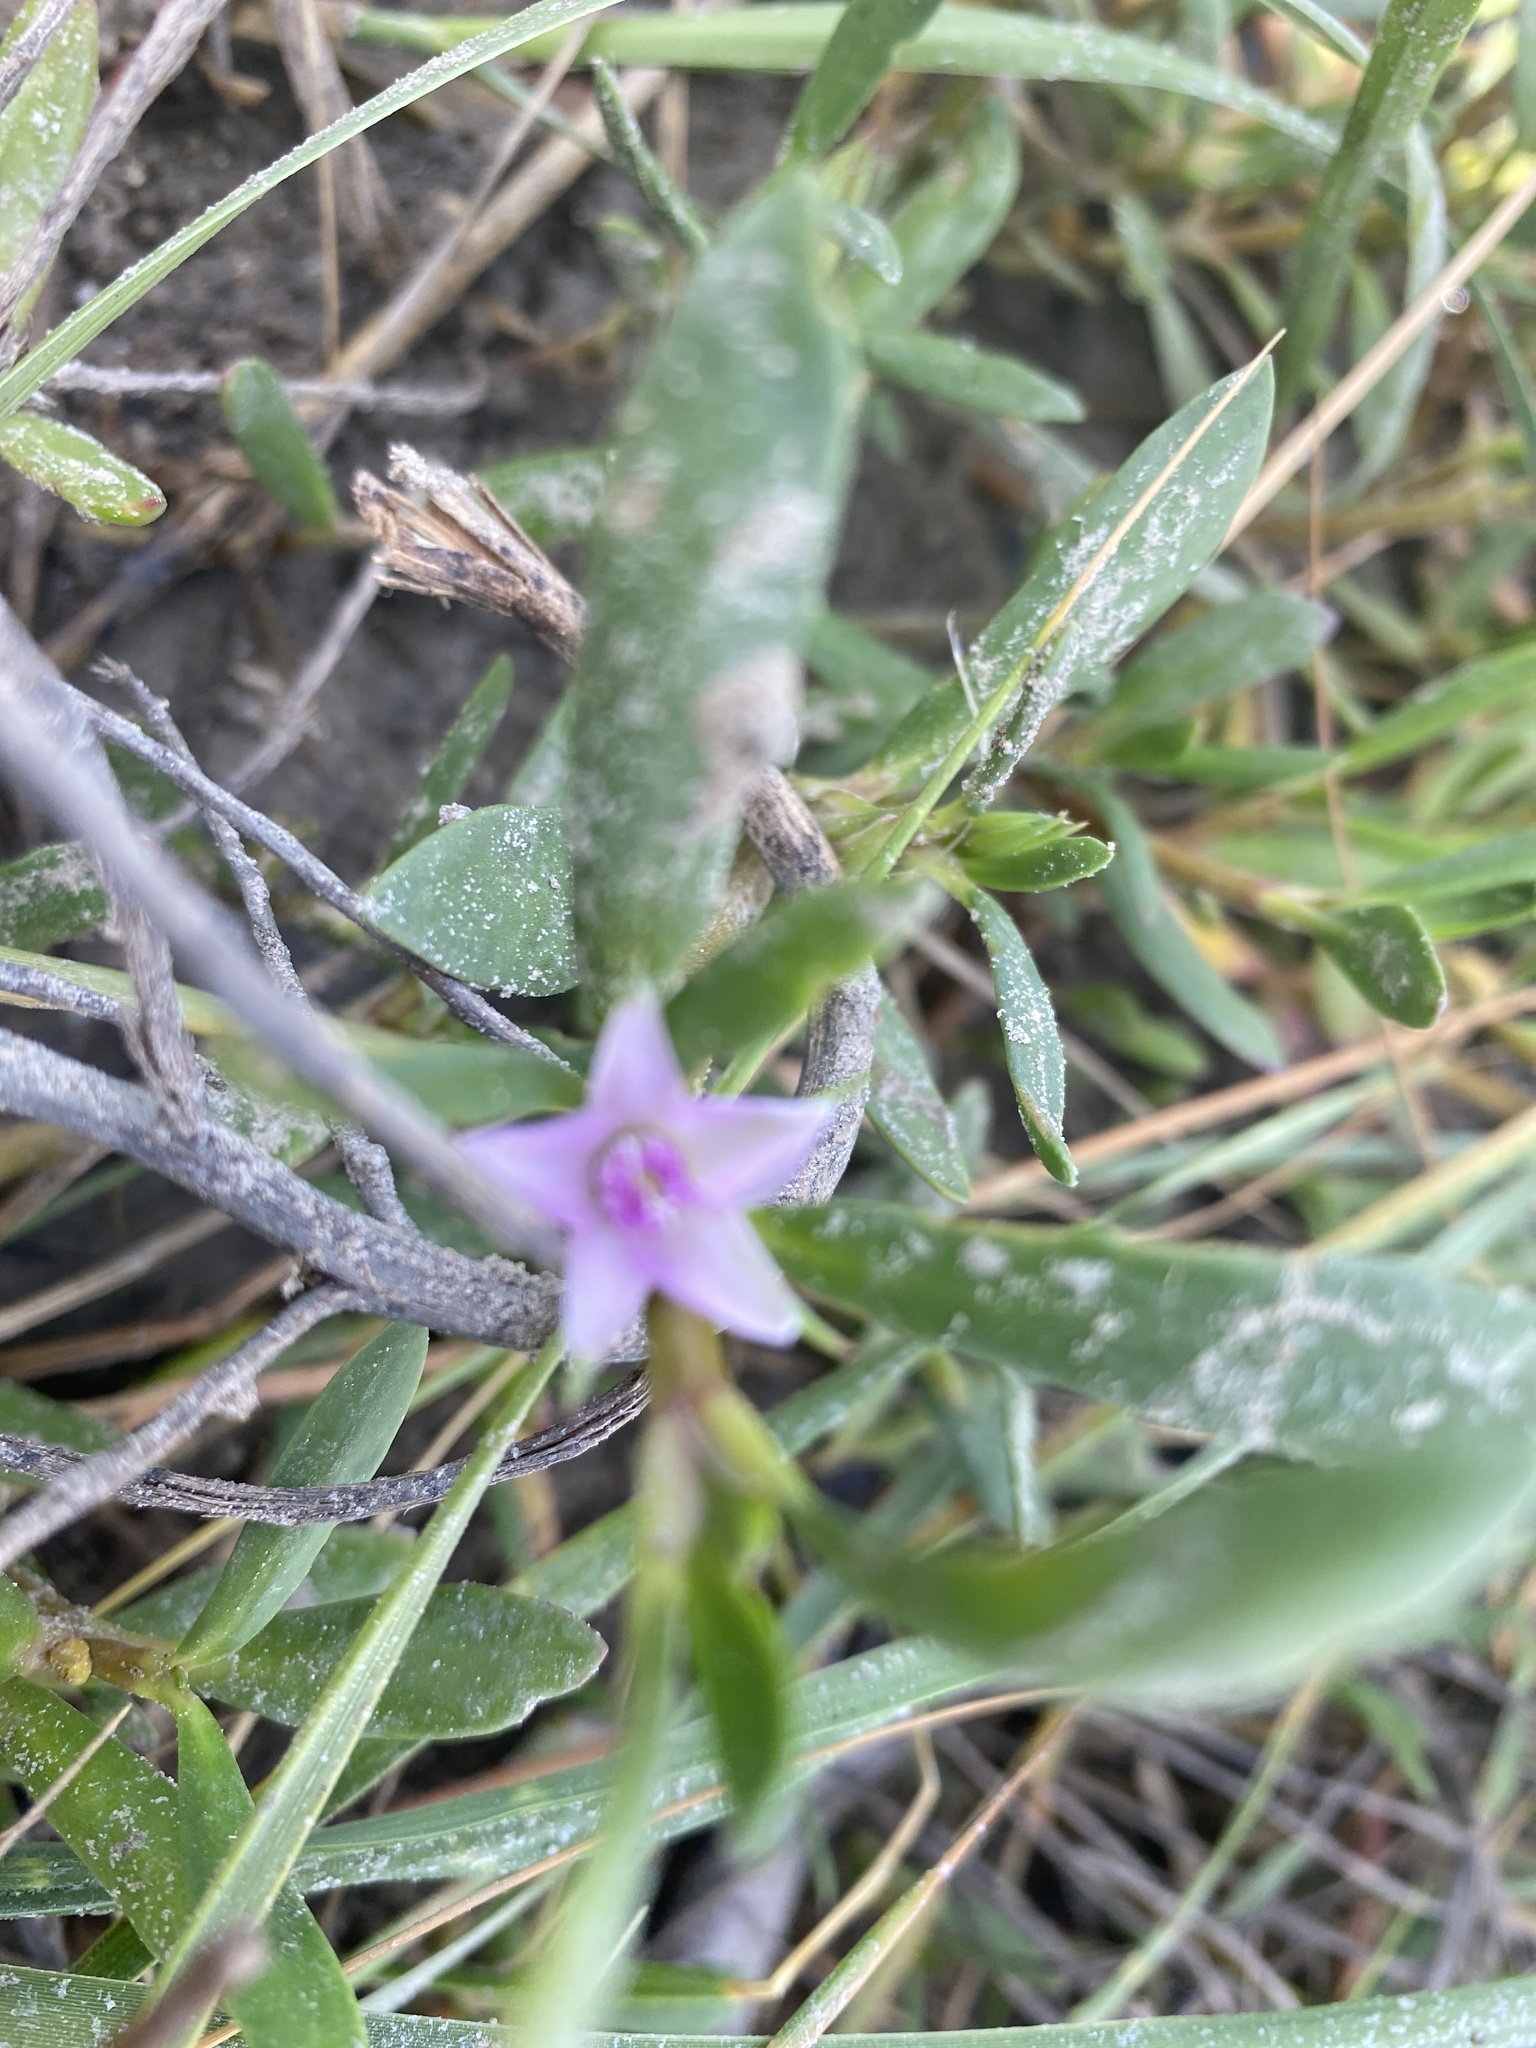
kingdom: Plantae
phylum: Tracheophyta
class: Magnoliopsida
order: Caryophyllales
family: Aizoaceae
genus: Sesuvium
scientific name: Sesuvium portulacastrum
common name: Sea-purslane
